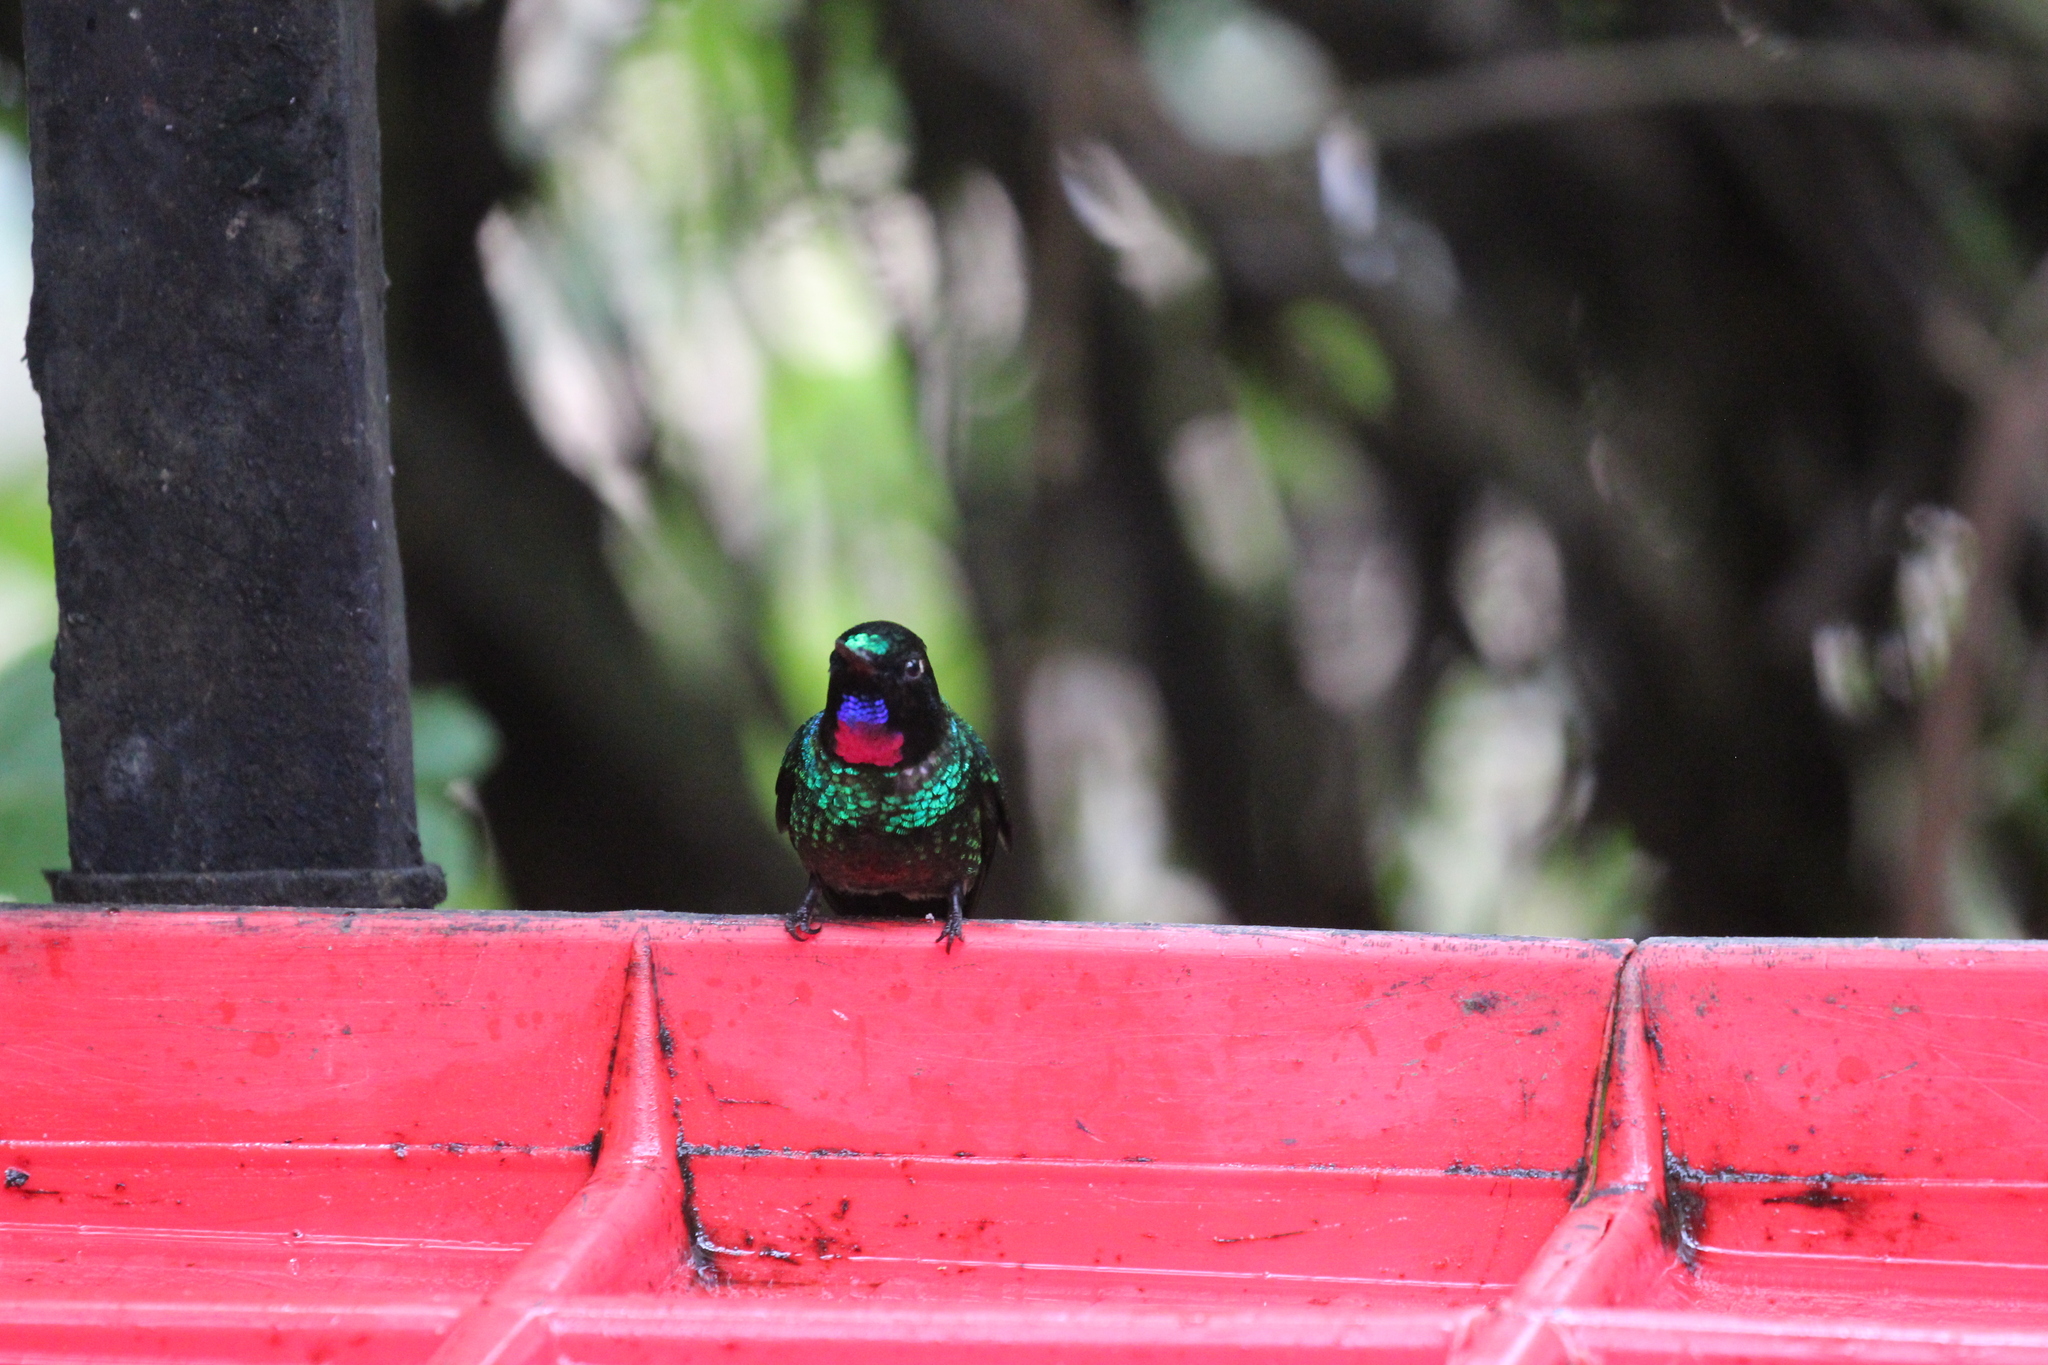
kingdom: Animalia
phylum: Chordata
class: Aves
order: Apodiformes
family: Trochilidae
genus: Heliangelus
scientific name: Heliangelus exortis
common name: Tourmaline sunangel
